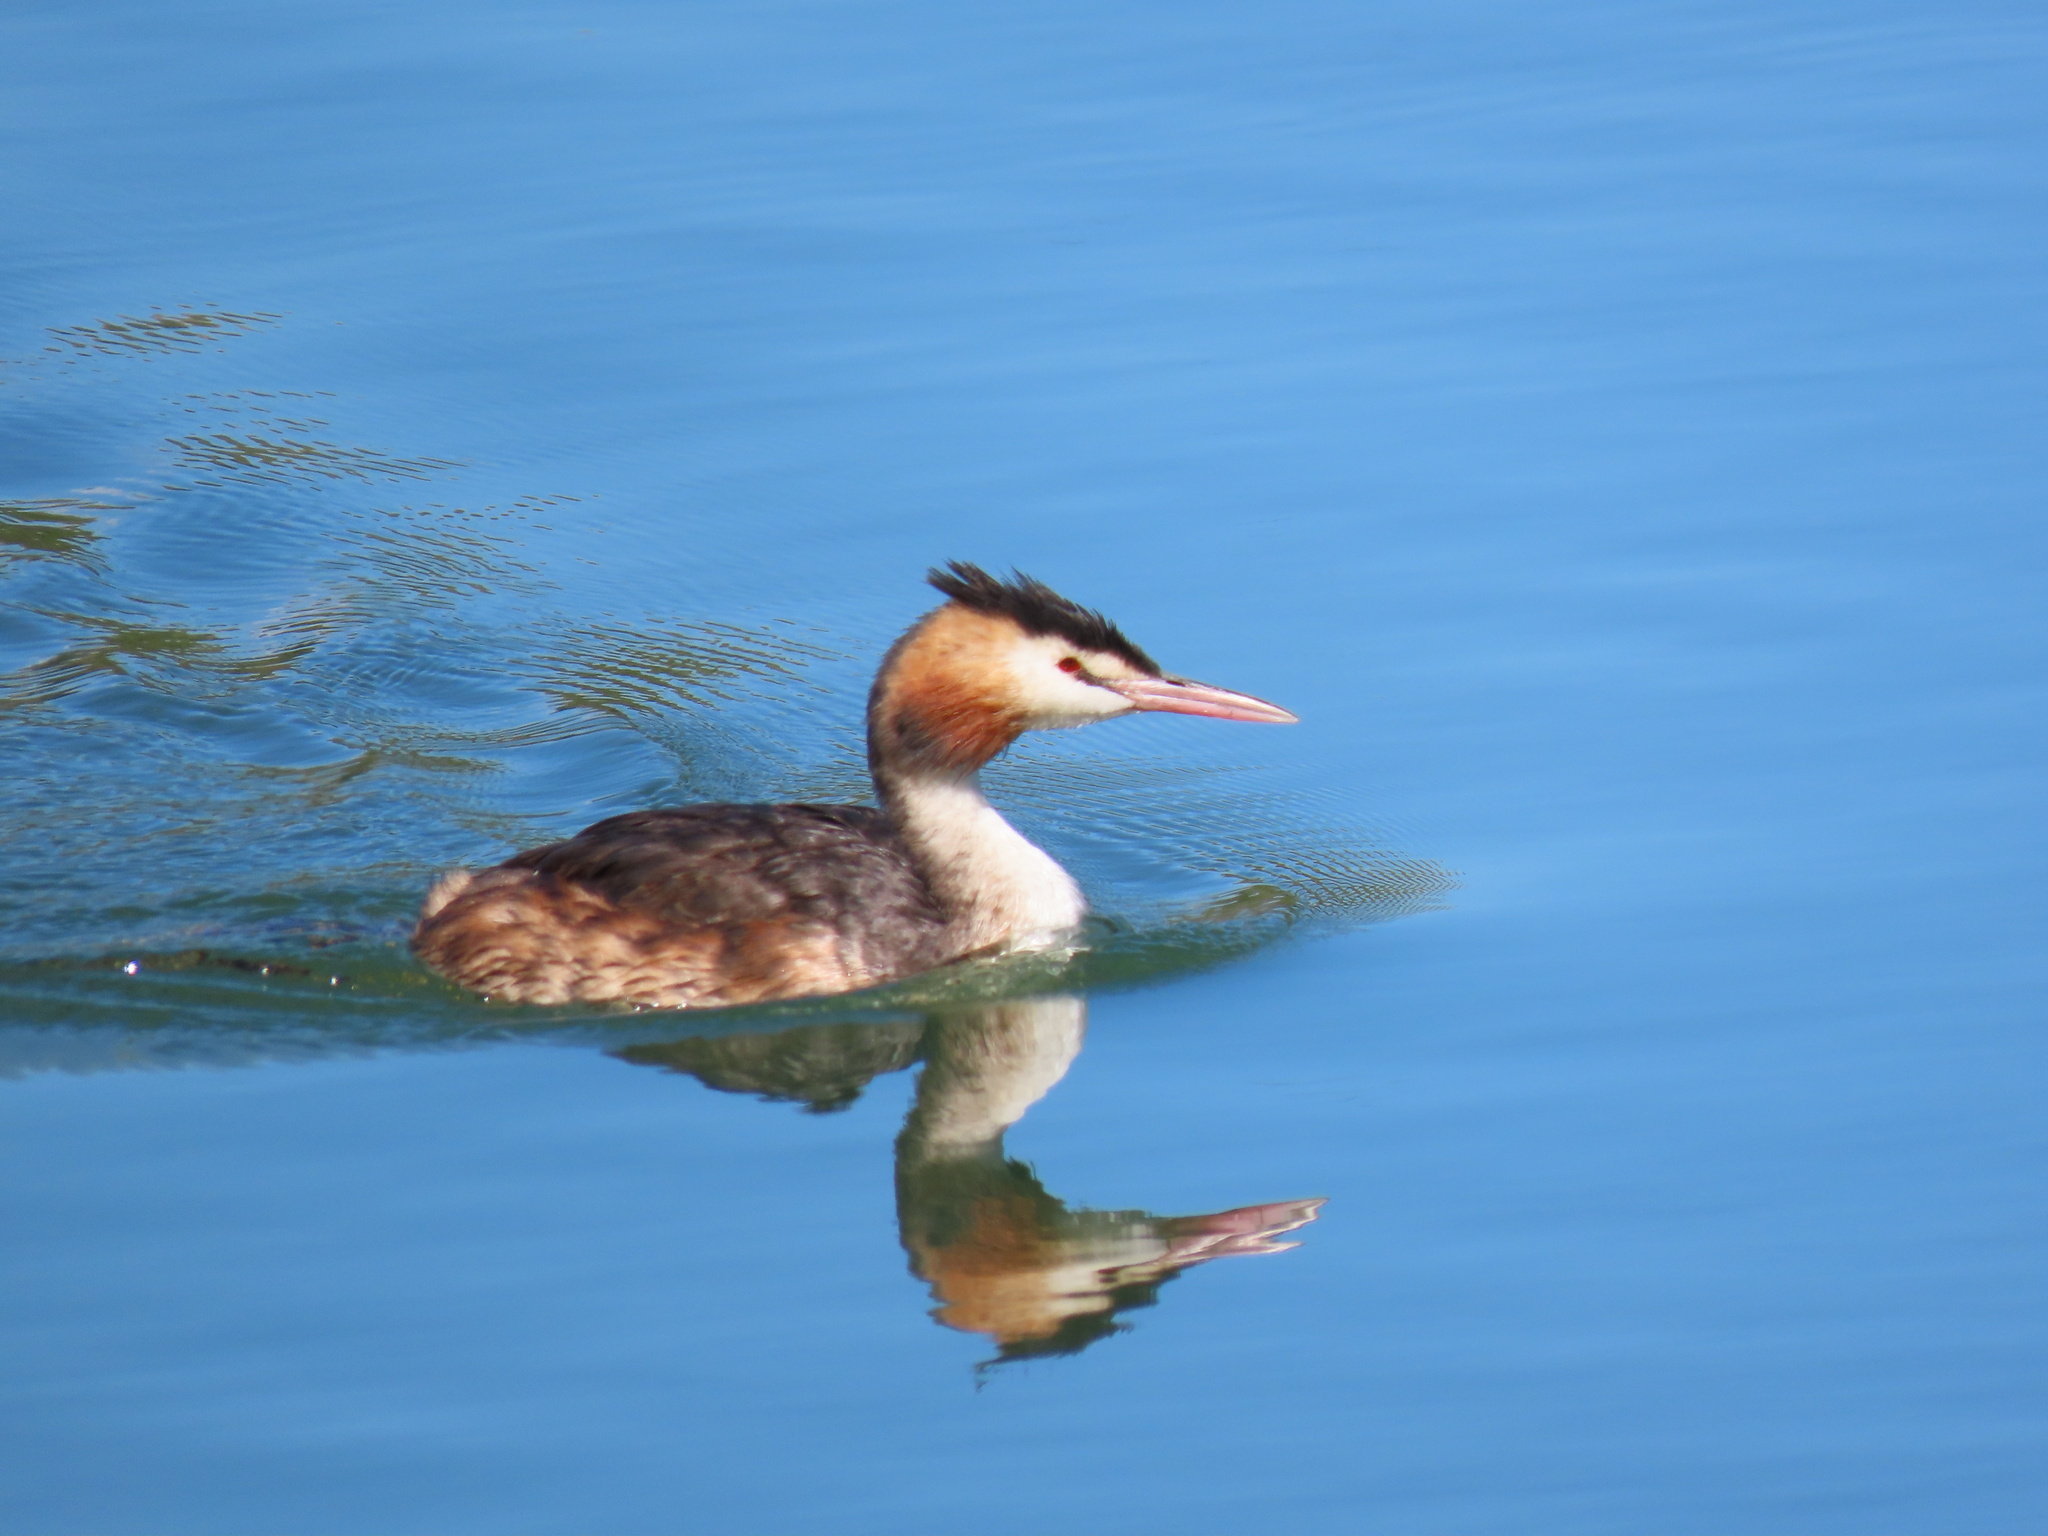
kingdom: Animalia
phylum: Chordata
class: Aves
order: Podicipediformes
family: Podicipedidae
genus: Podiceps
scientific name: Podiceps cristatus
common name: Great crested grebe
